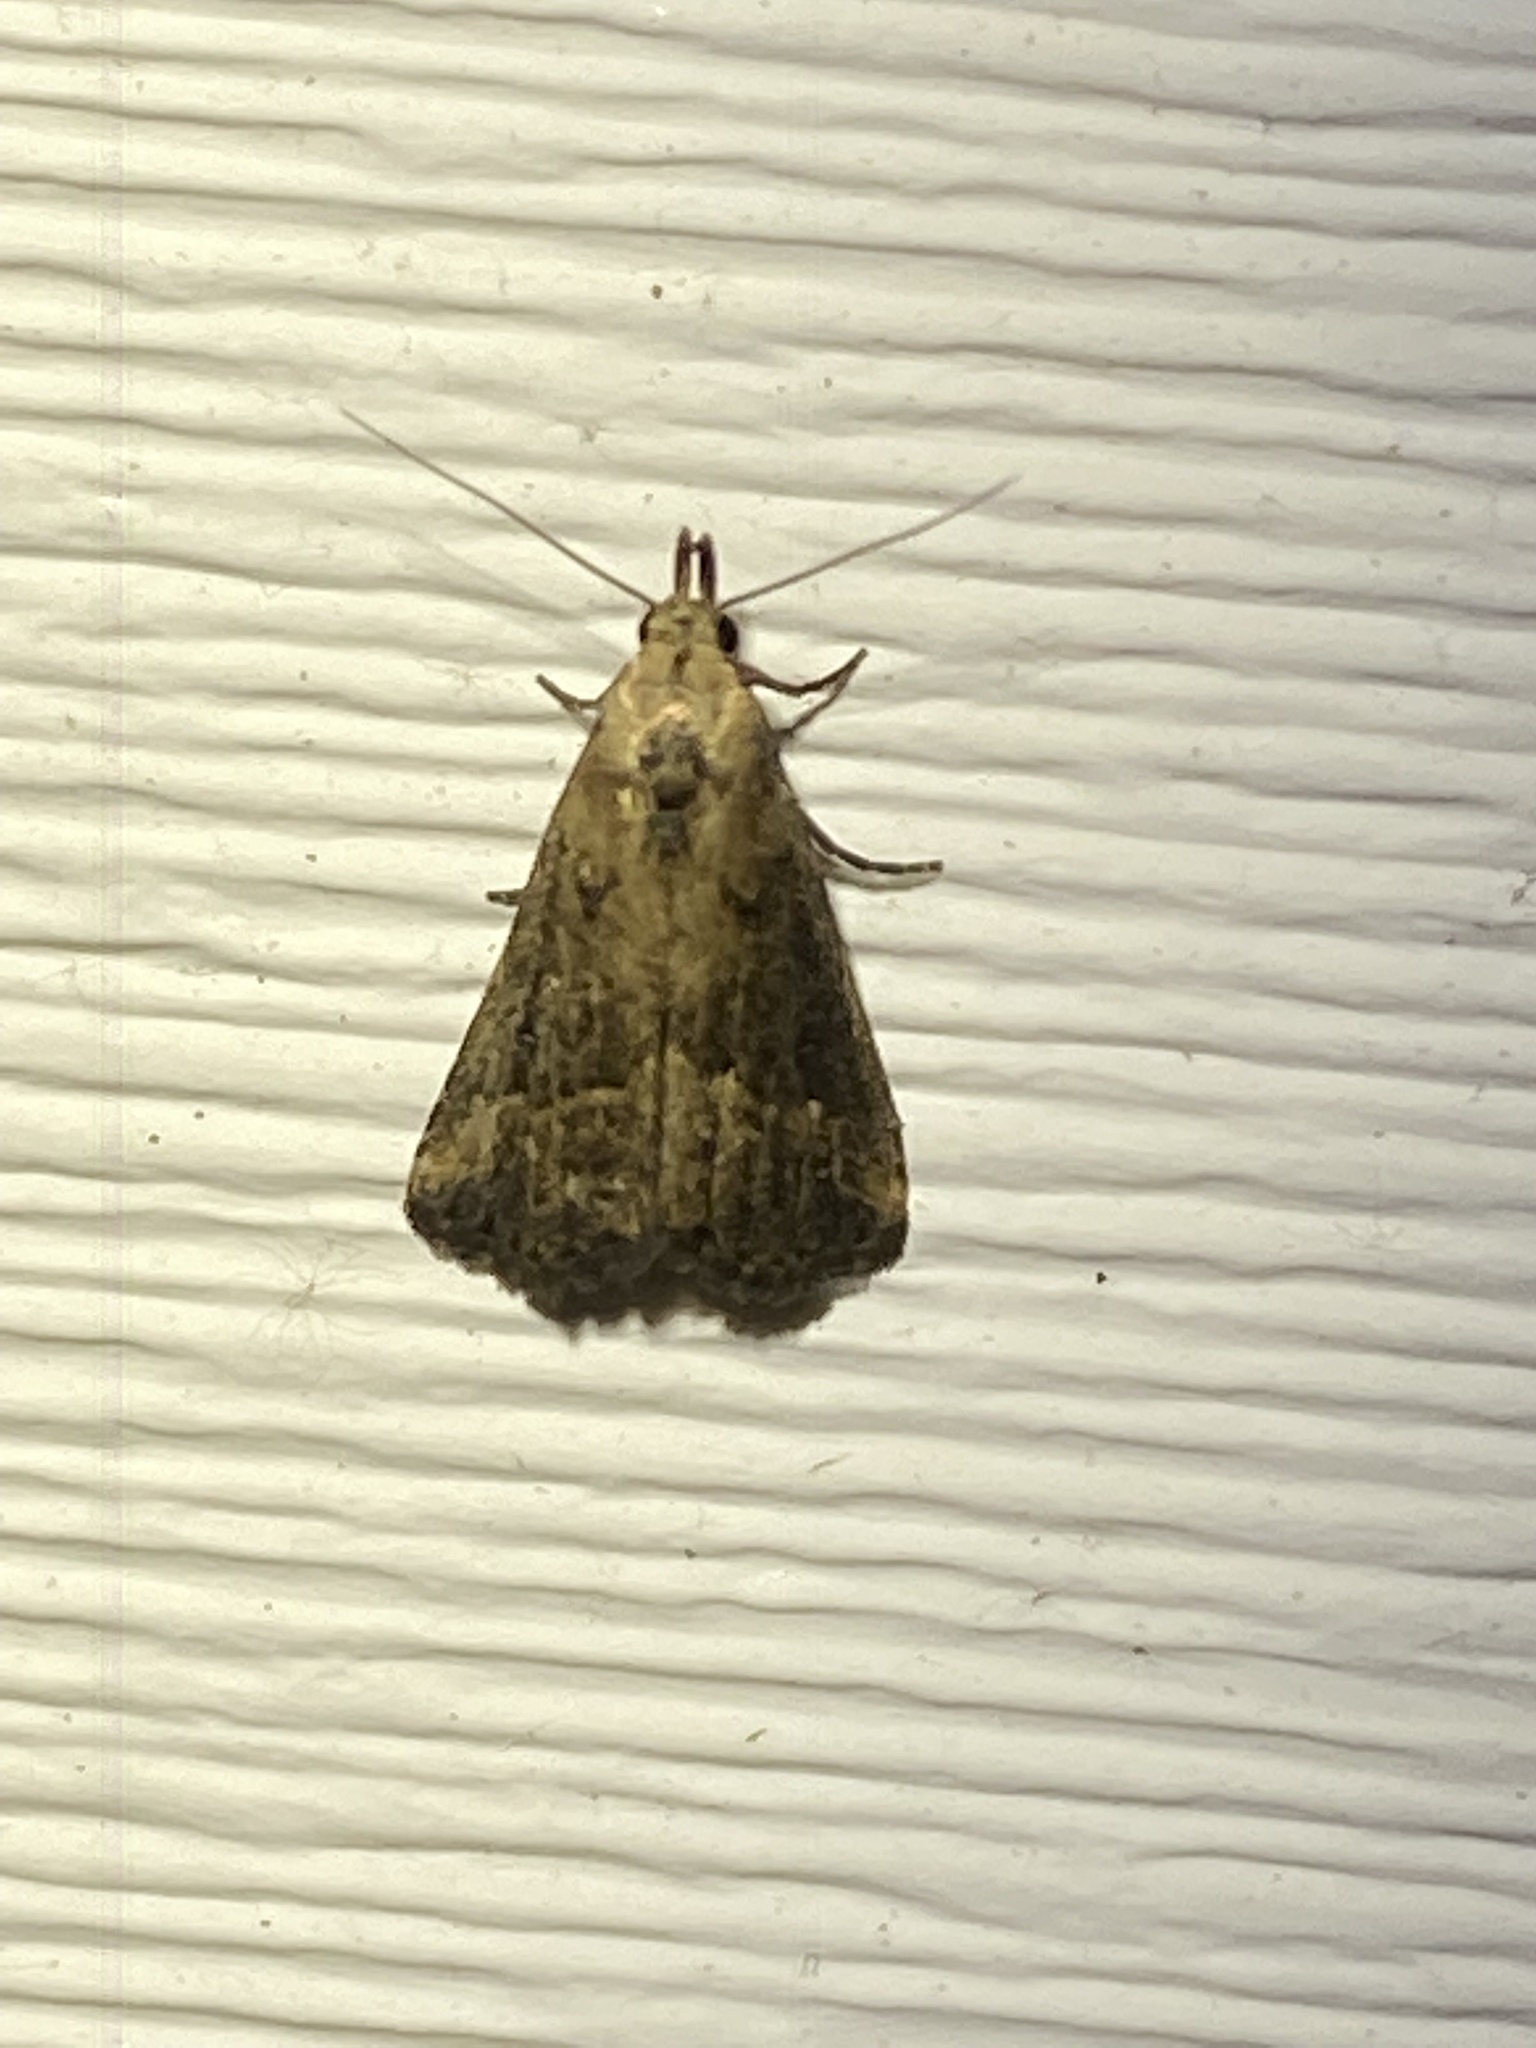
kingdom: Animalia
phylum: Arthropoda
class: Insecta
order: Lepidoptera
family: Erebidae
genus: Schrankia
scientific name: Schrankia
